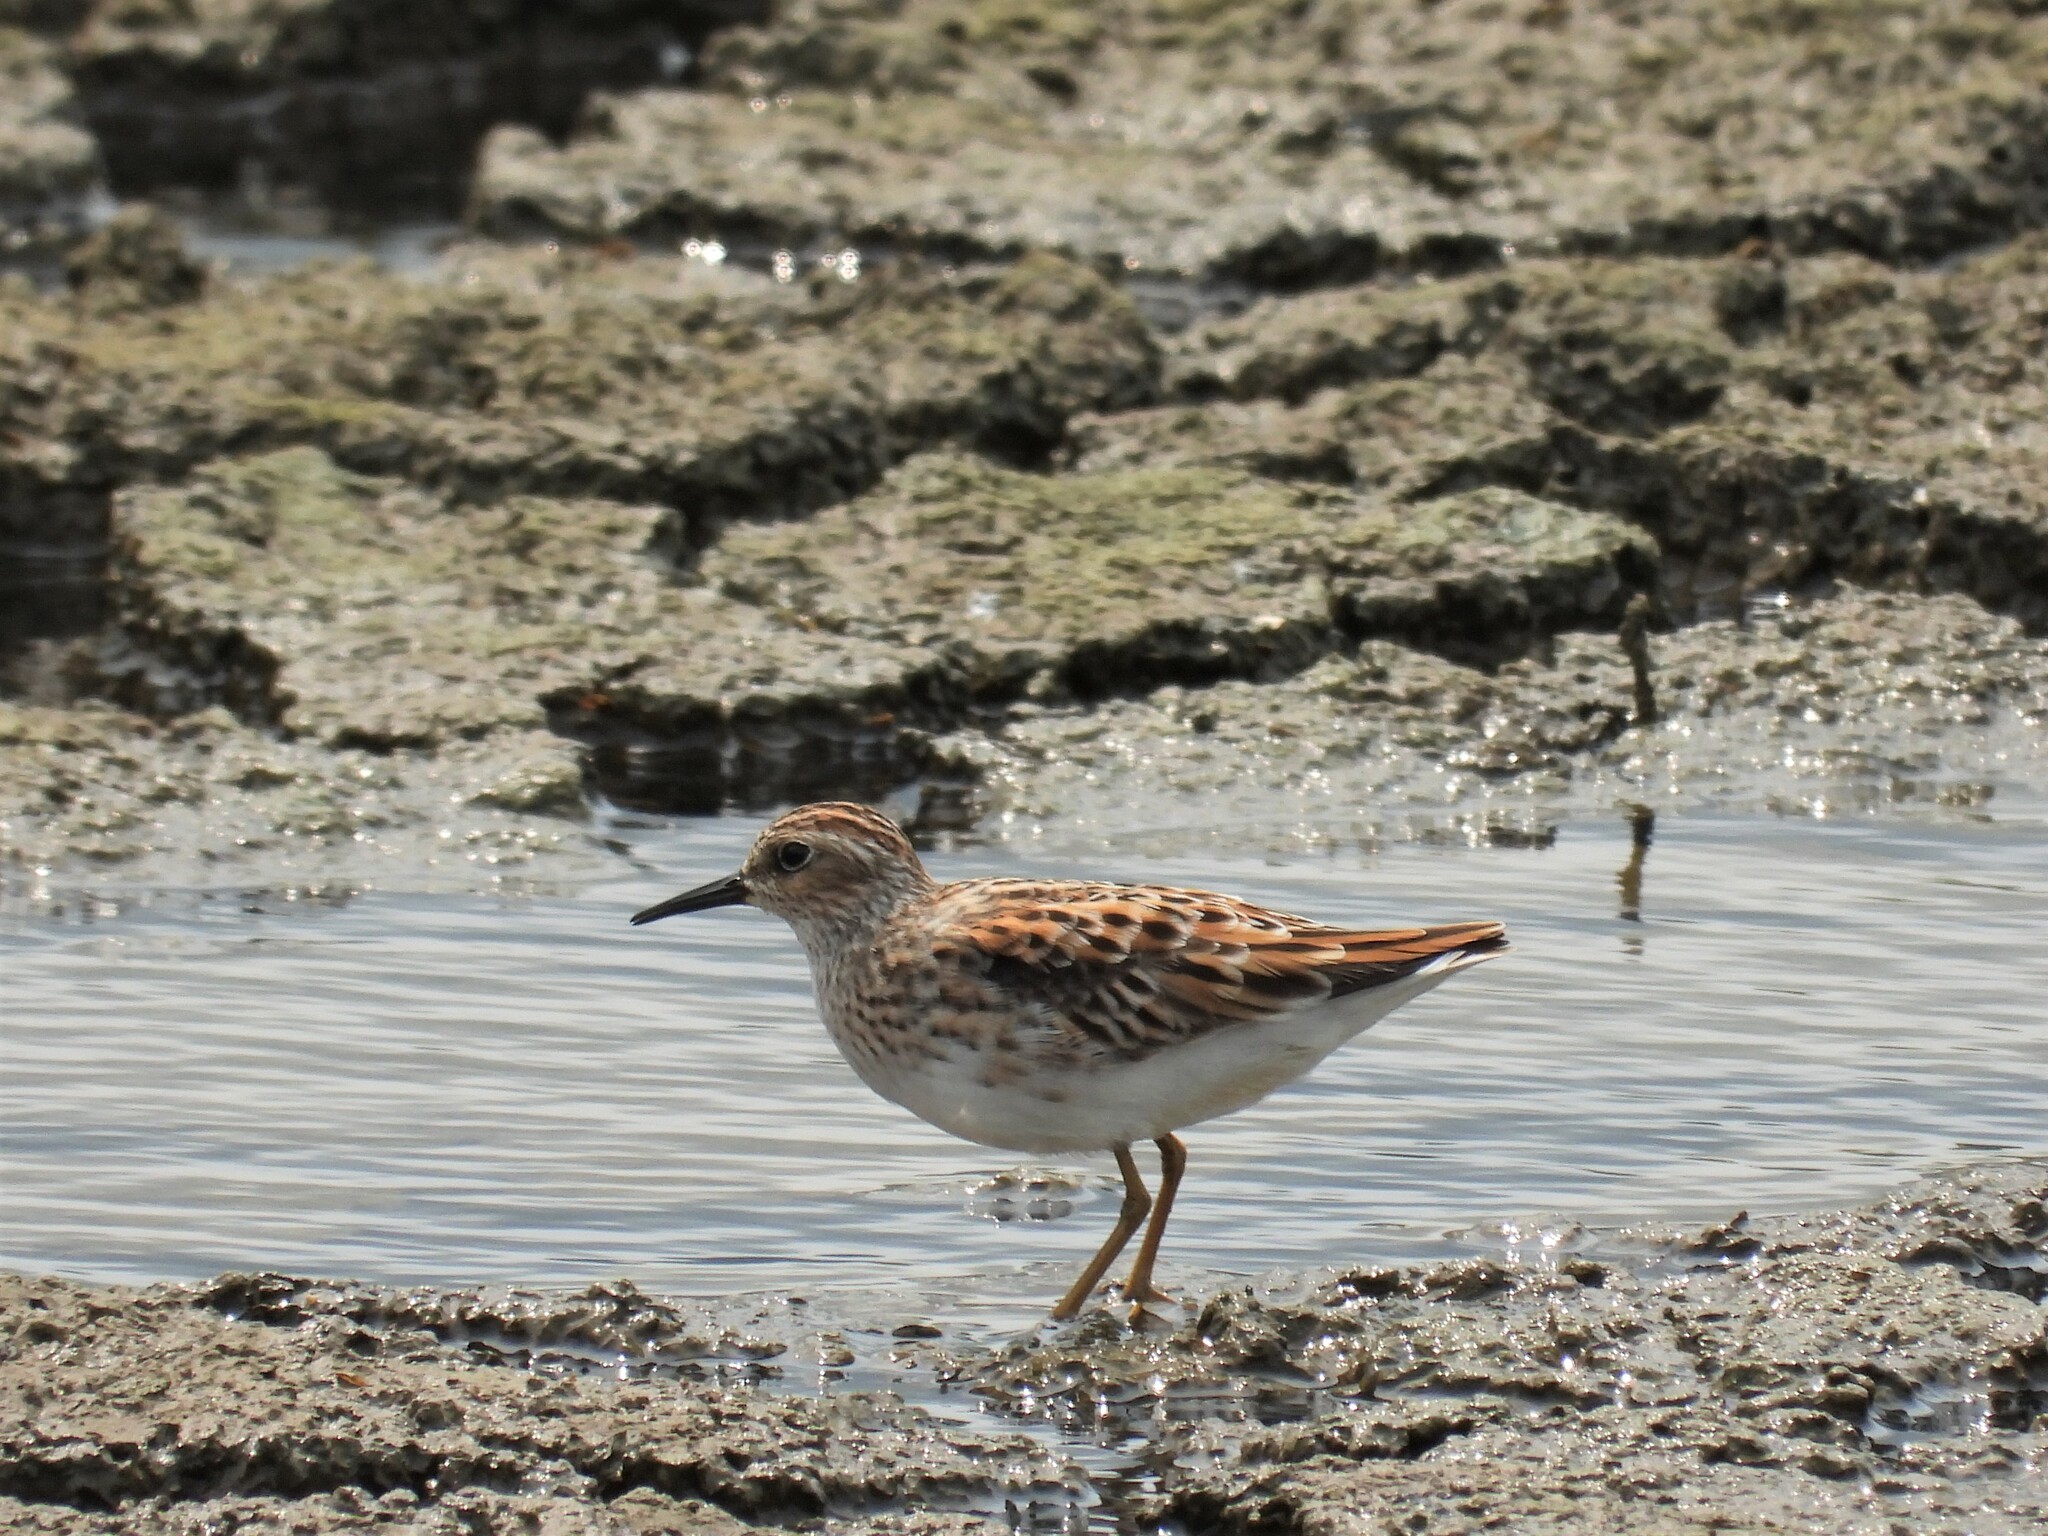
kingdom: Animalia
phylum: Chordata
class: Aves
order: Charadriiformes
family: Scolopacidae
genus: Calidris
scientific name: Calidris subminuta
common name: Long-toed stint
